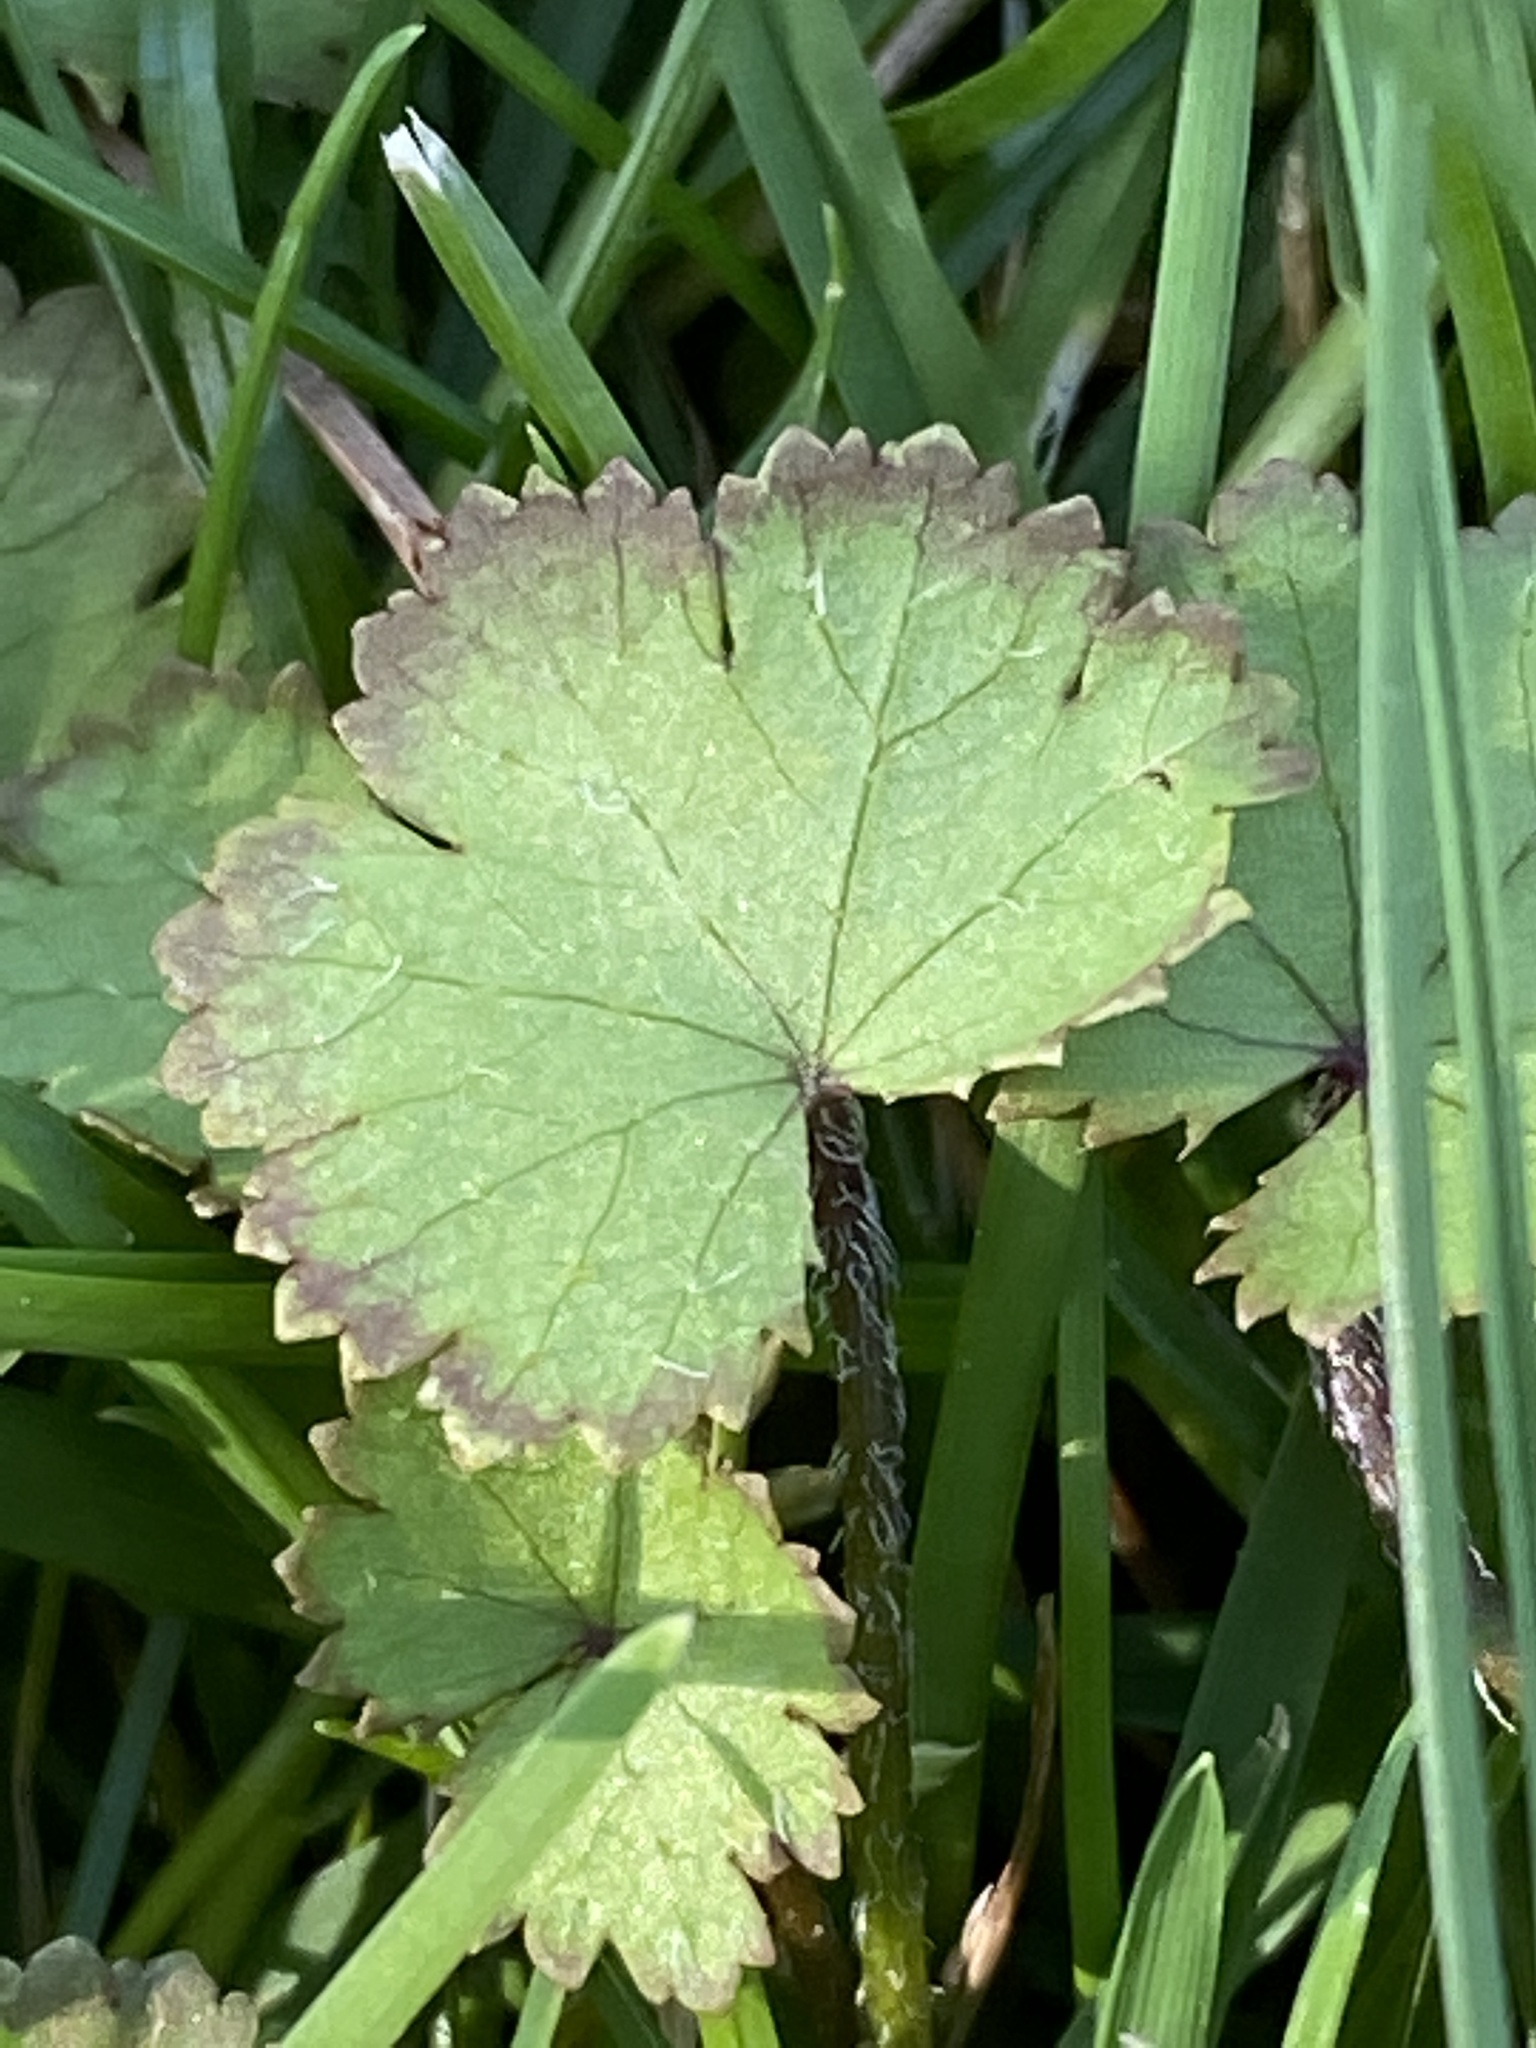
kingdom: Plantae
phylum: Tracheophyta
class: Magnoliopsida
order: Apiales
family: Araliaceae
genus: Hydrocotyle
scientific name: Hydrocotyle moschata
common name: Hairy pennywort
